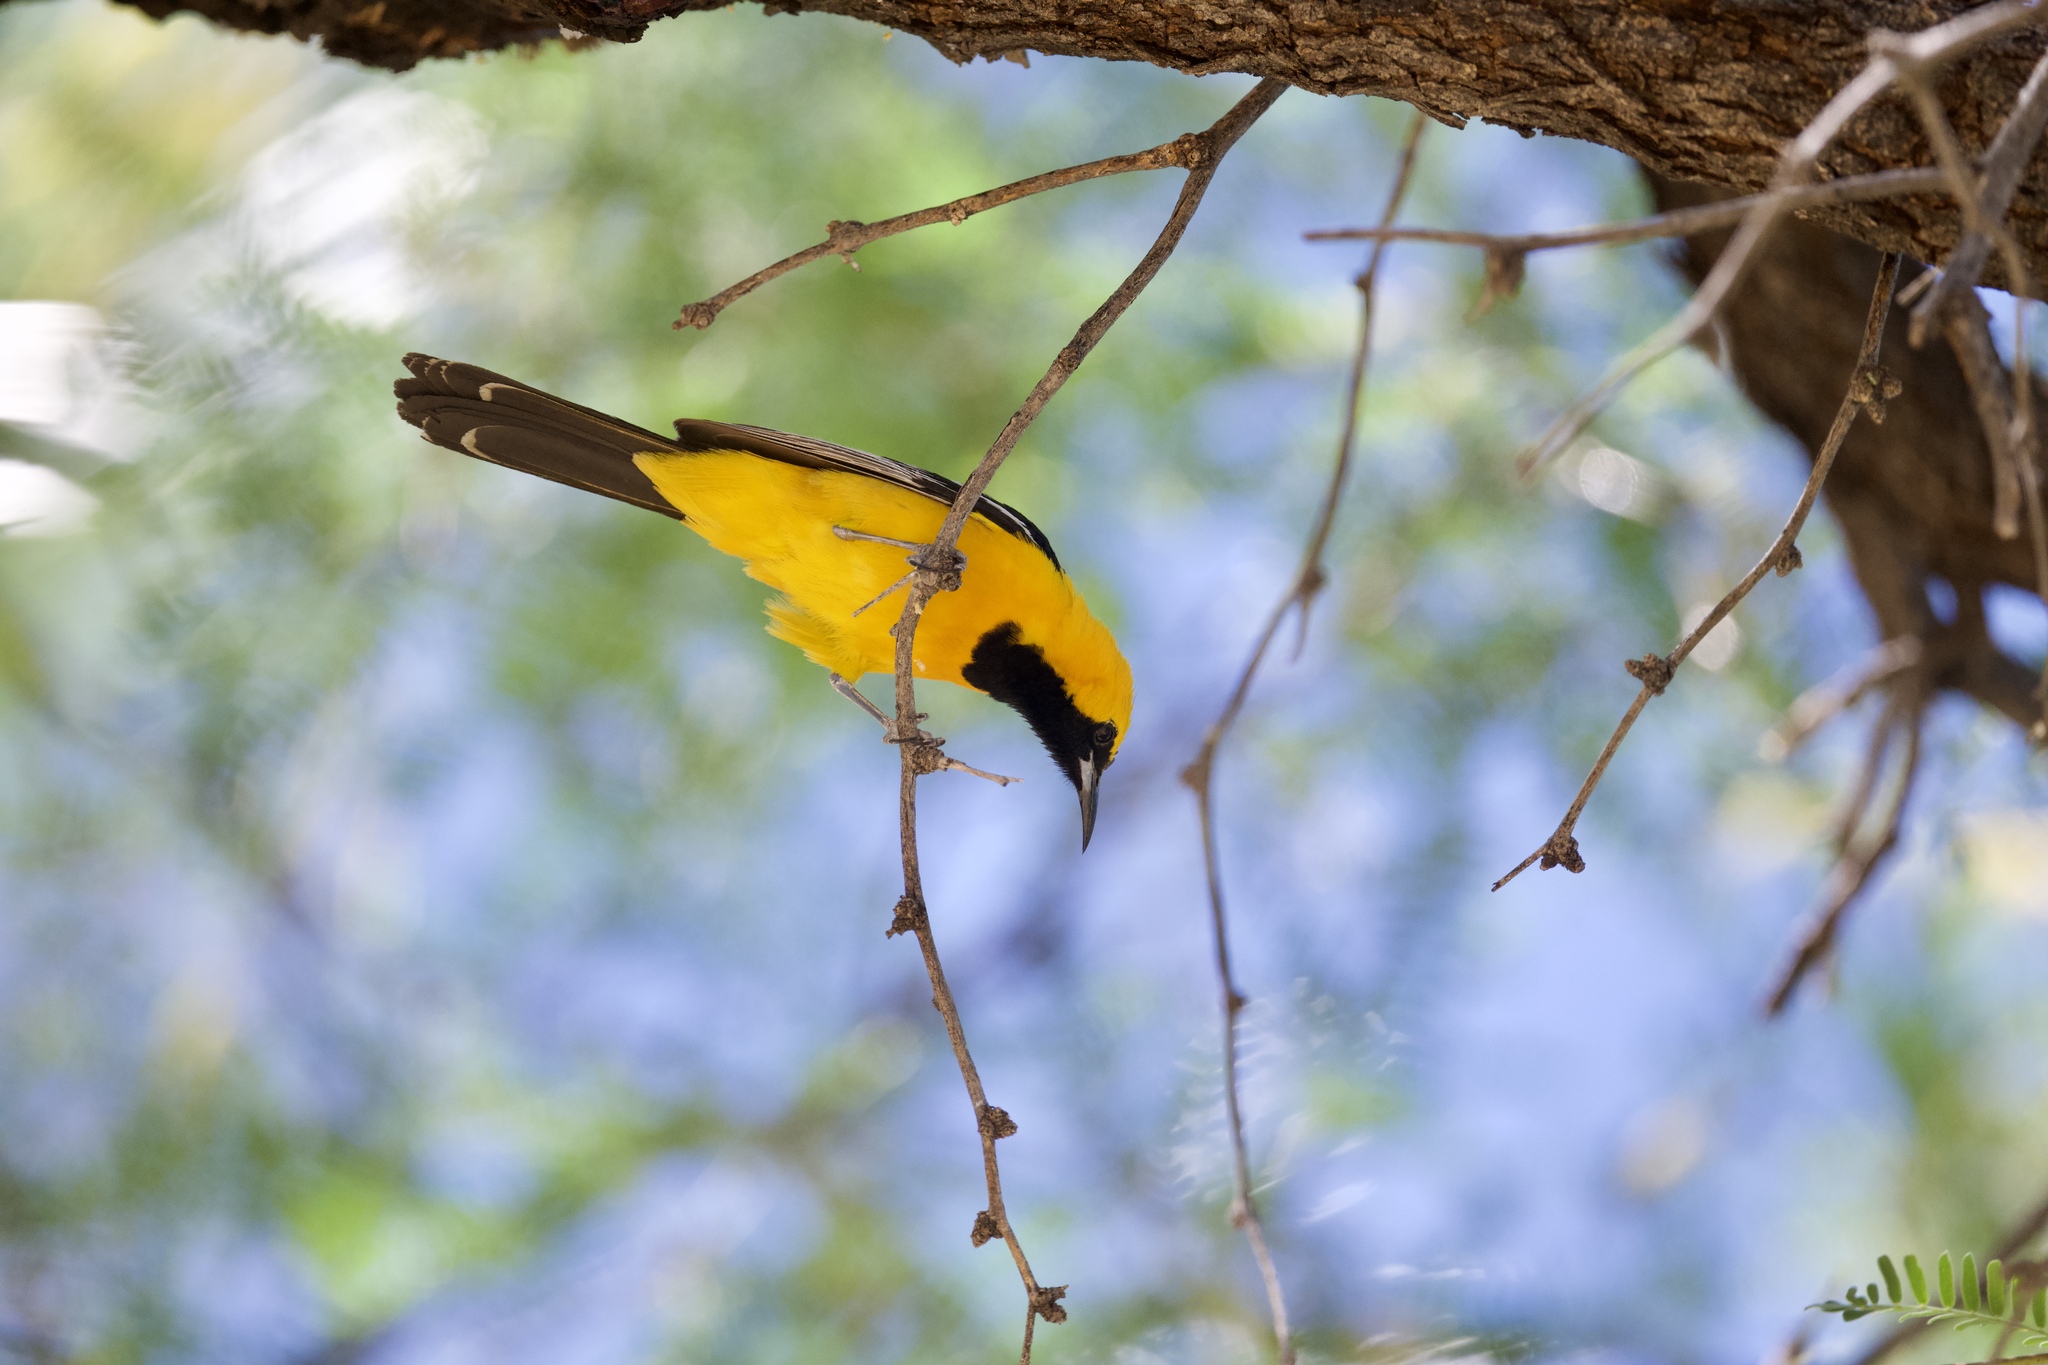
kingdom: Animalia
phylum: Chordata
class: Aves
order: Passeriformes
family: Icteridae
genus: Icterus
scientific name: Icterus cucullatus
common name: Hooded oriole
